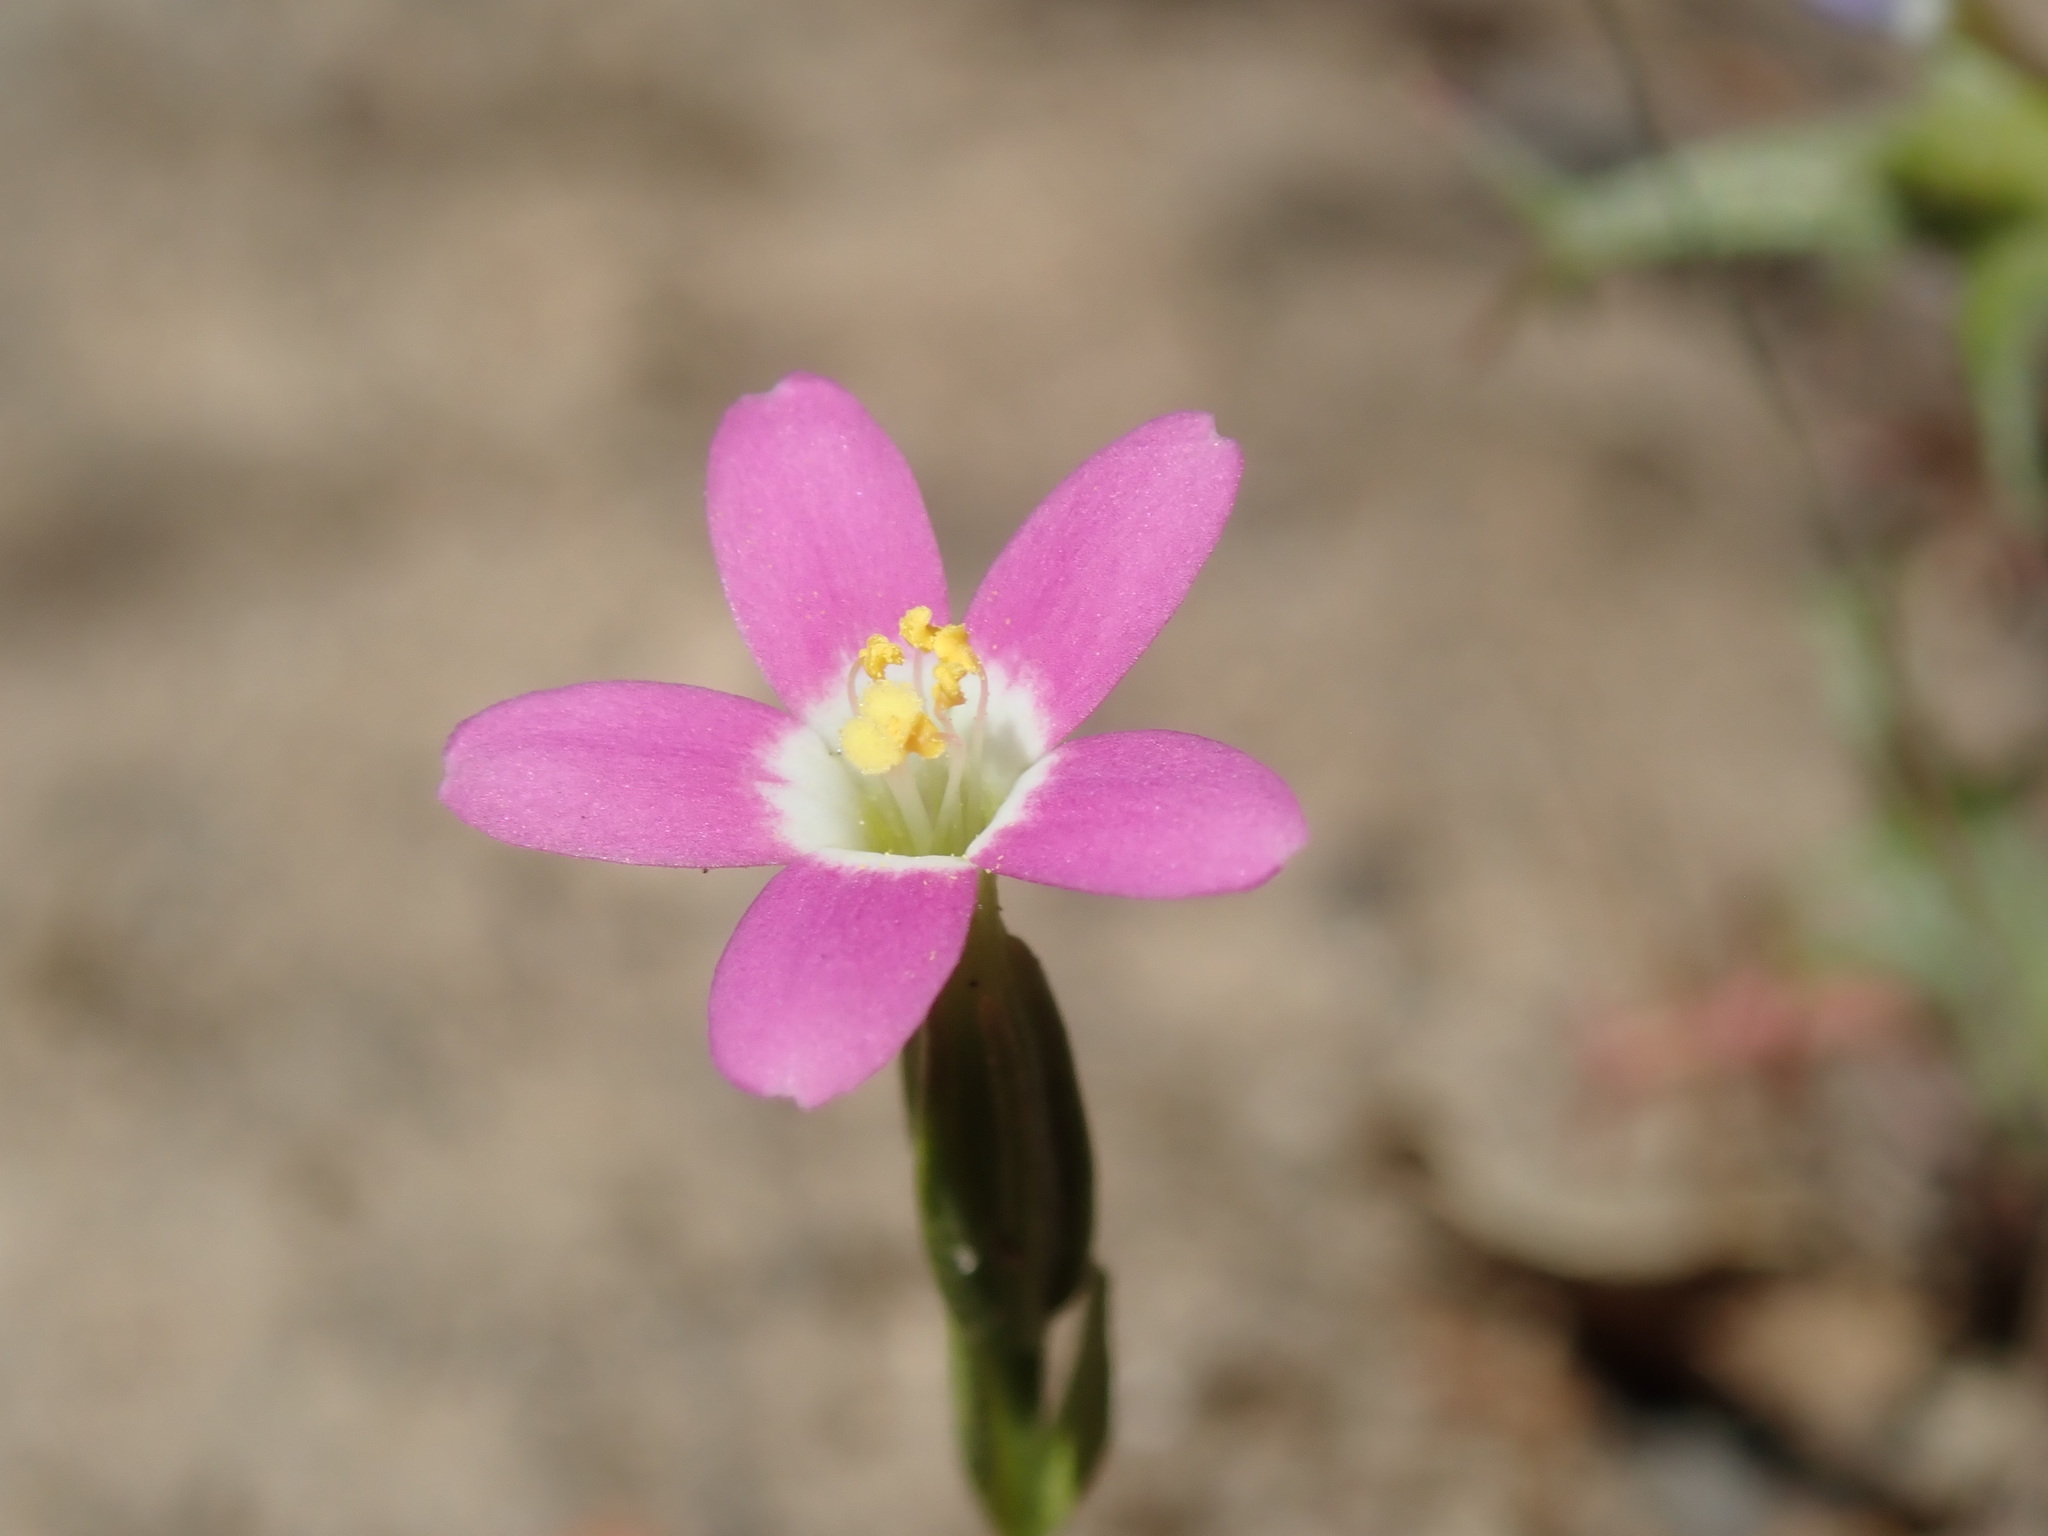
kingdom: Plantae
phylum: Tracheophyta
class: Magnoliopsida
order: Gentianales
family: Gentianaceae
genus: Zeltnera
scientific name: Zeltnera davyi
